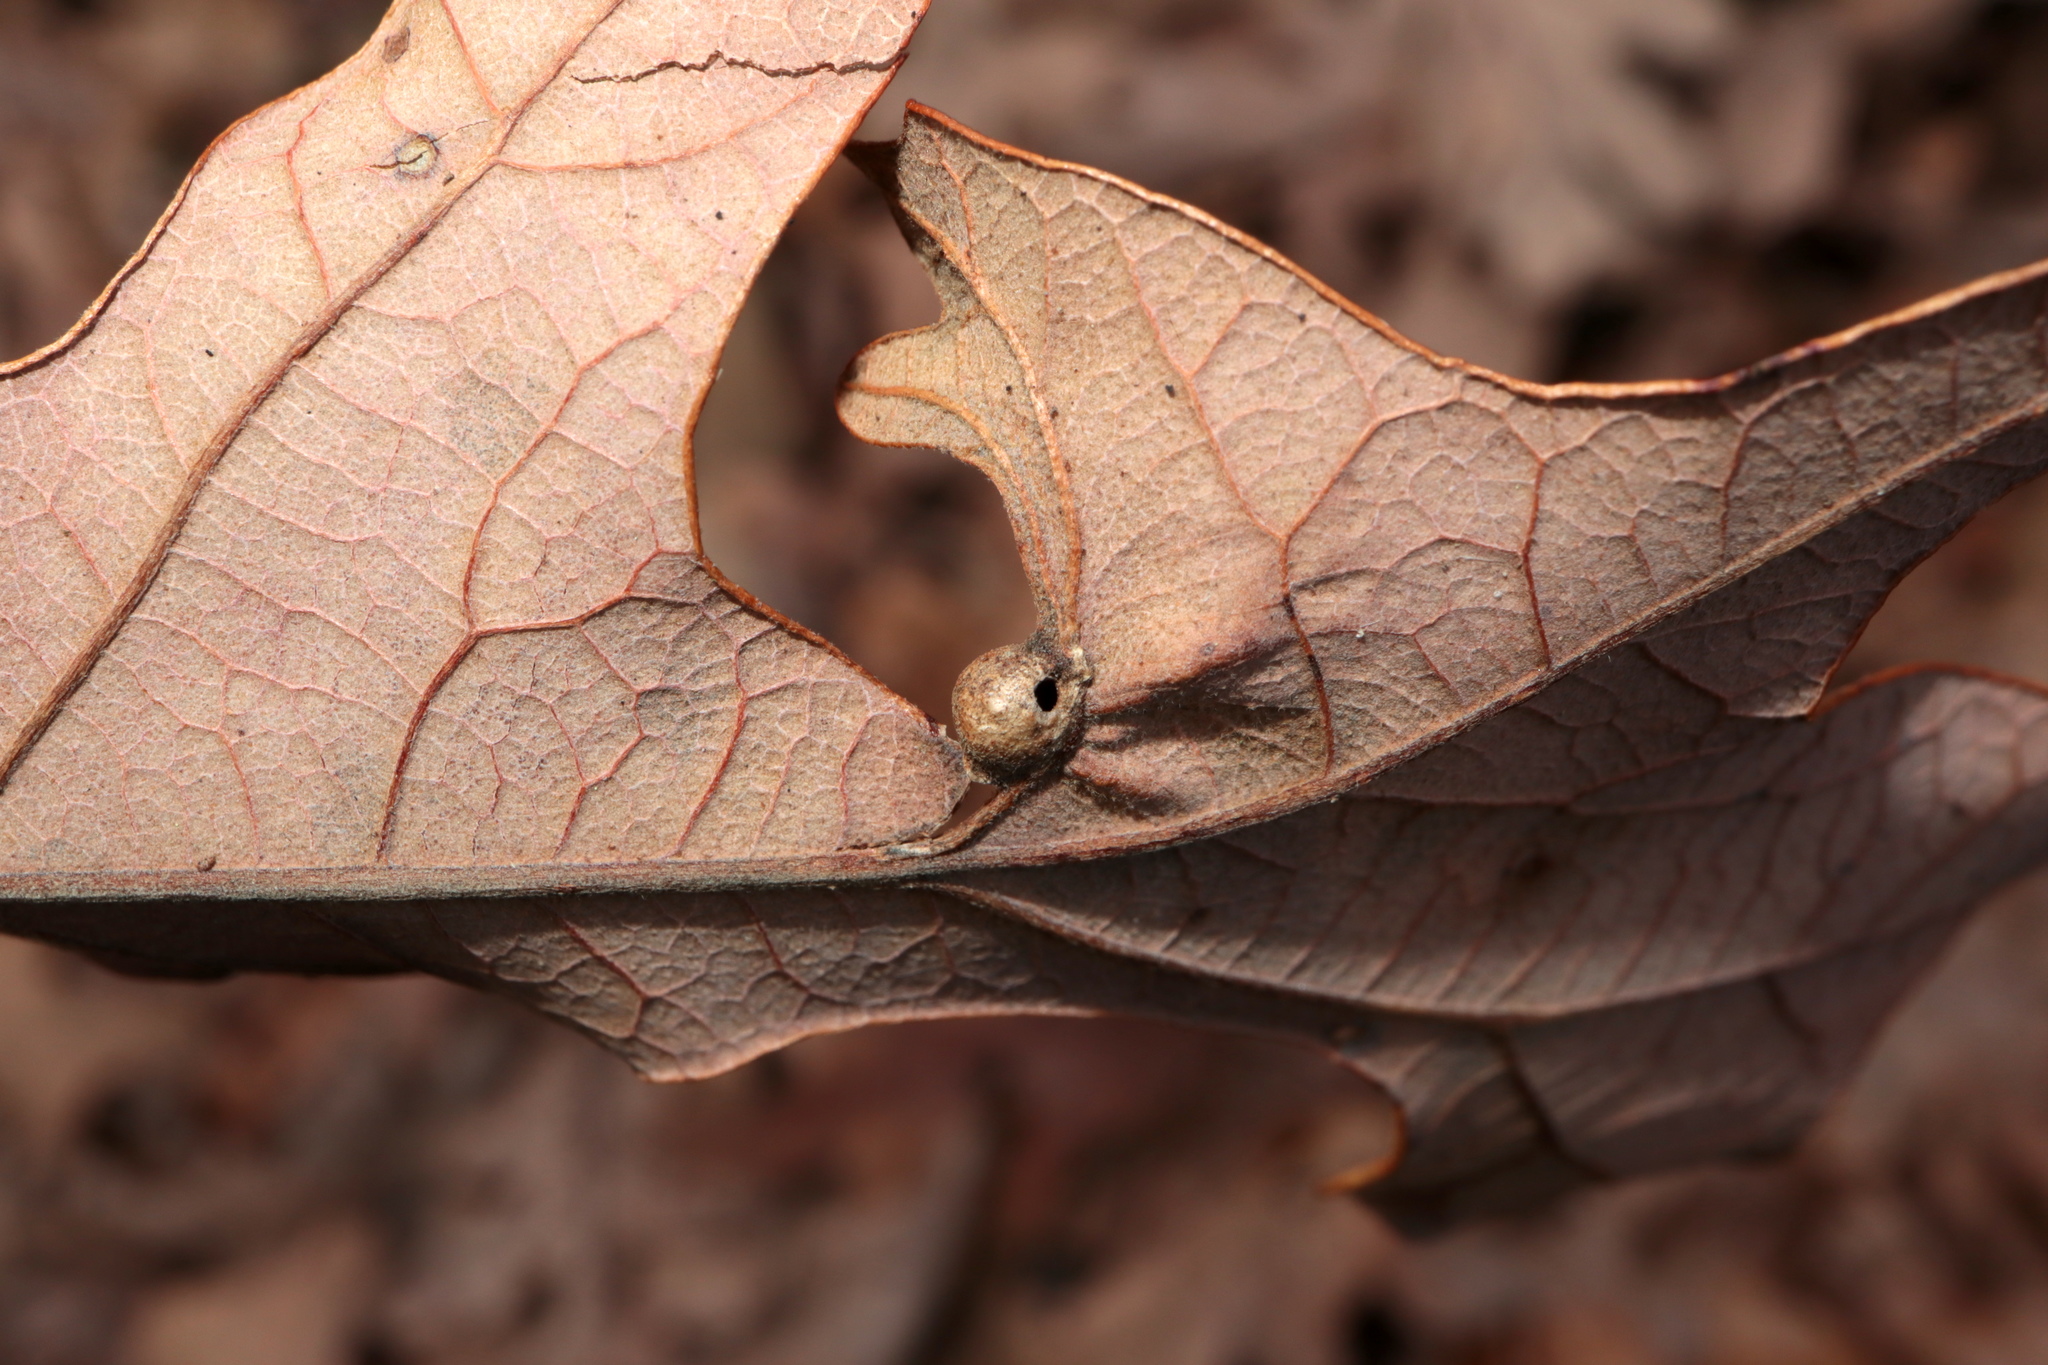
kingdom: Animalia
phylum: Arthropoda
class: Insecta
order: Hymenoptera
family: Cynipidae
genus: Andricus
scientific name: Andricus
